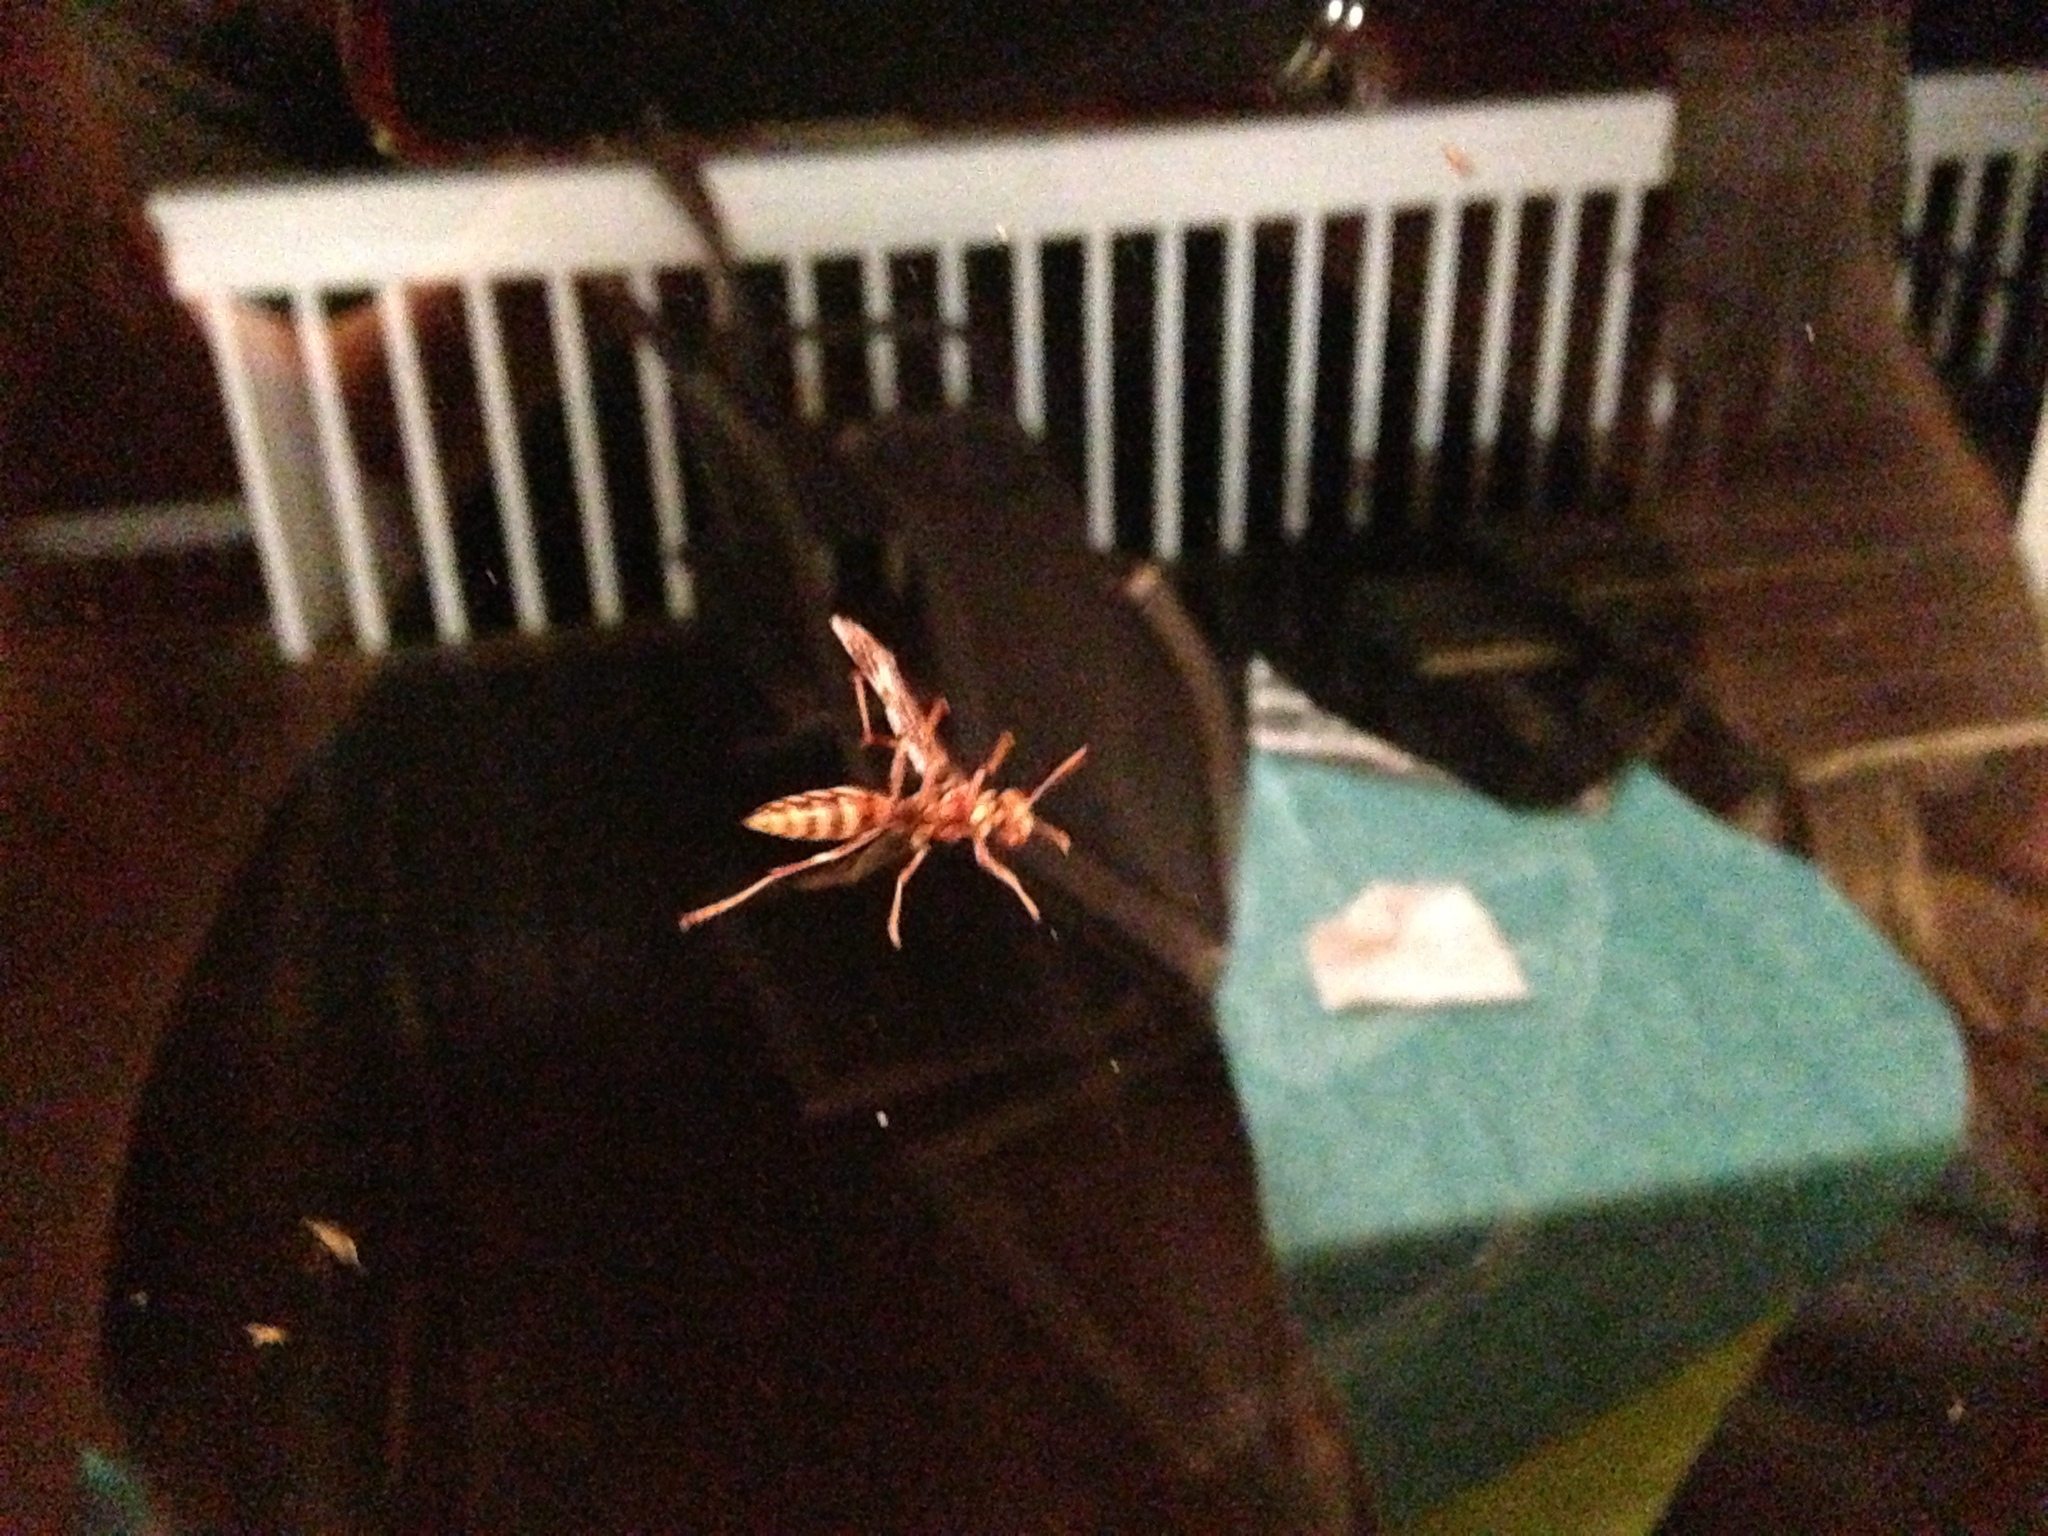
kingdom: Animalia
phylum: Arthropoda
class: Insecta
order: Hymenoptera
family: Eumenidae
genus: Polistes
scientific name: Polistes
